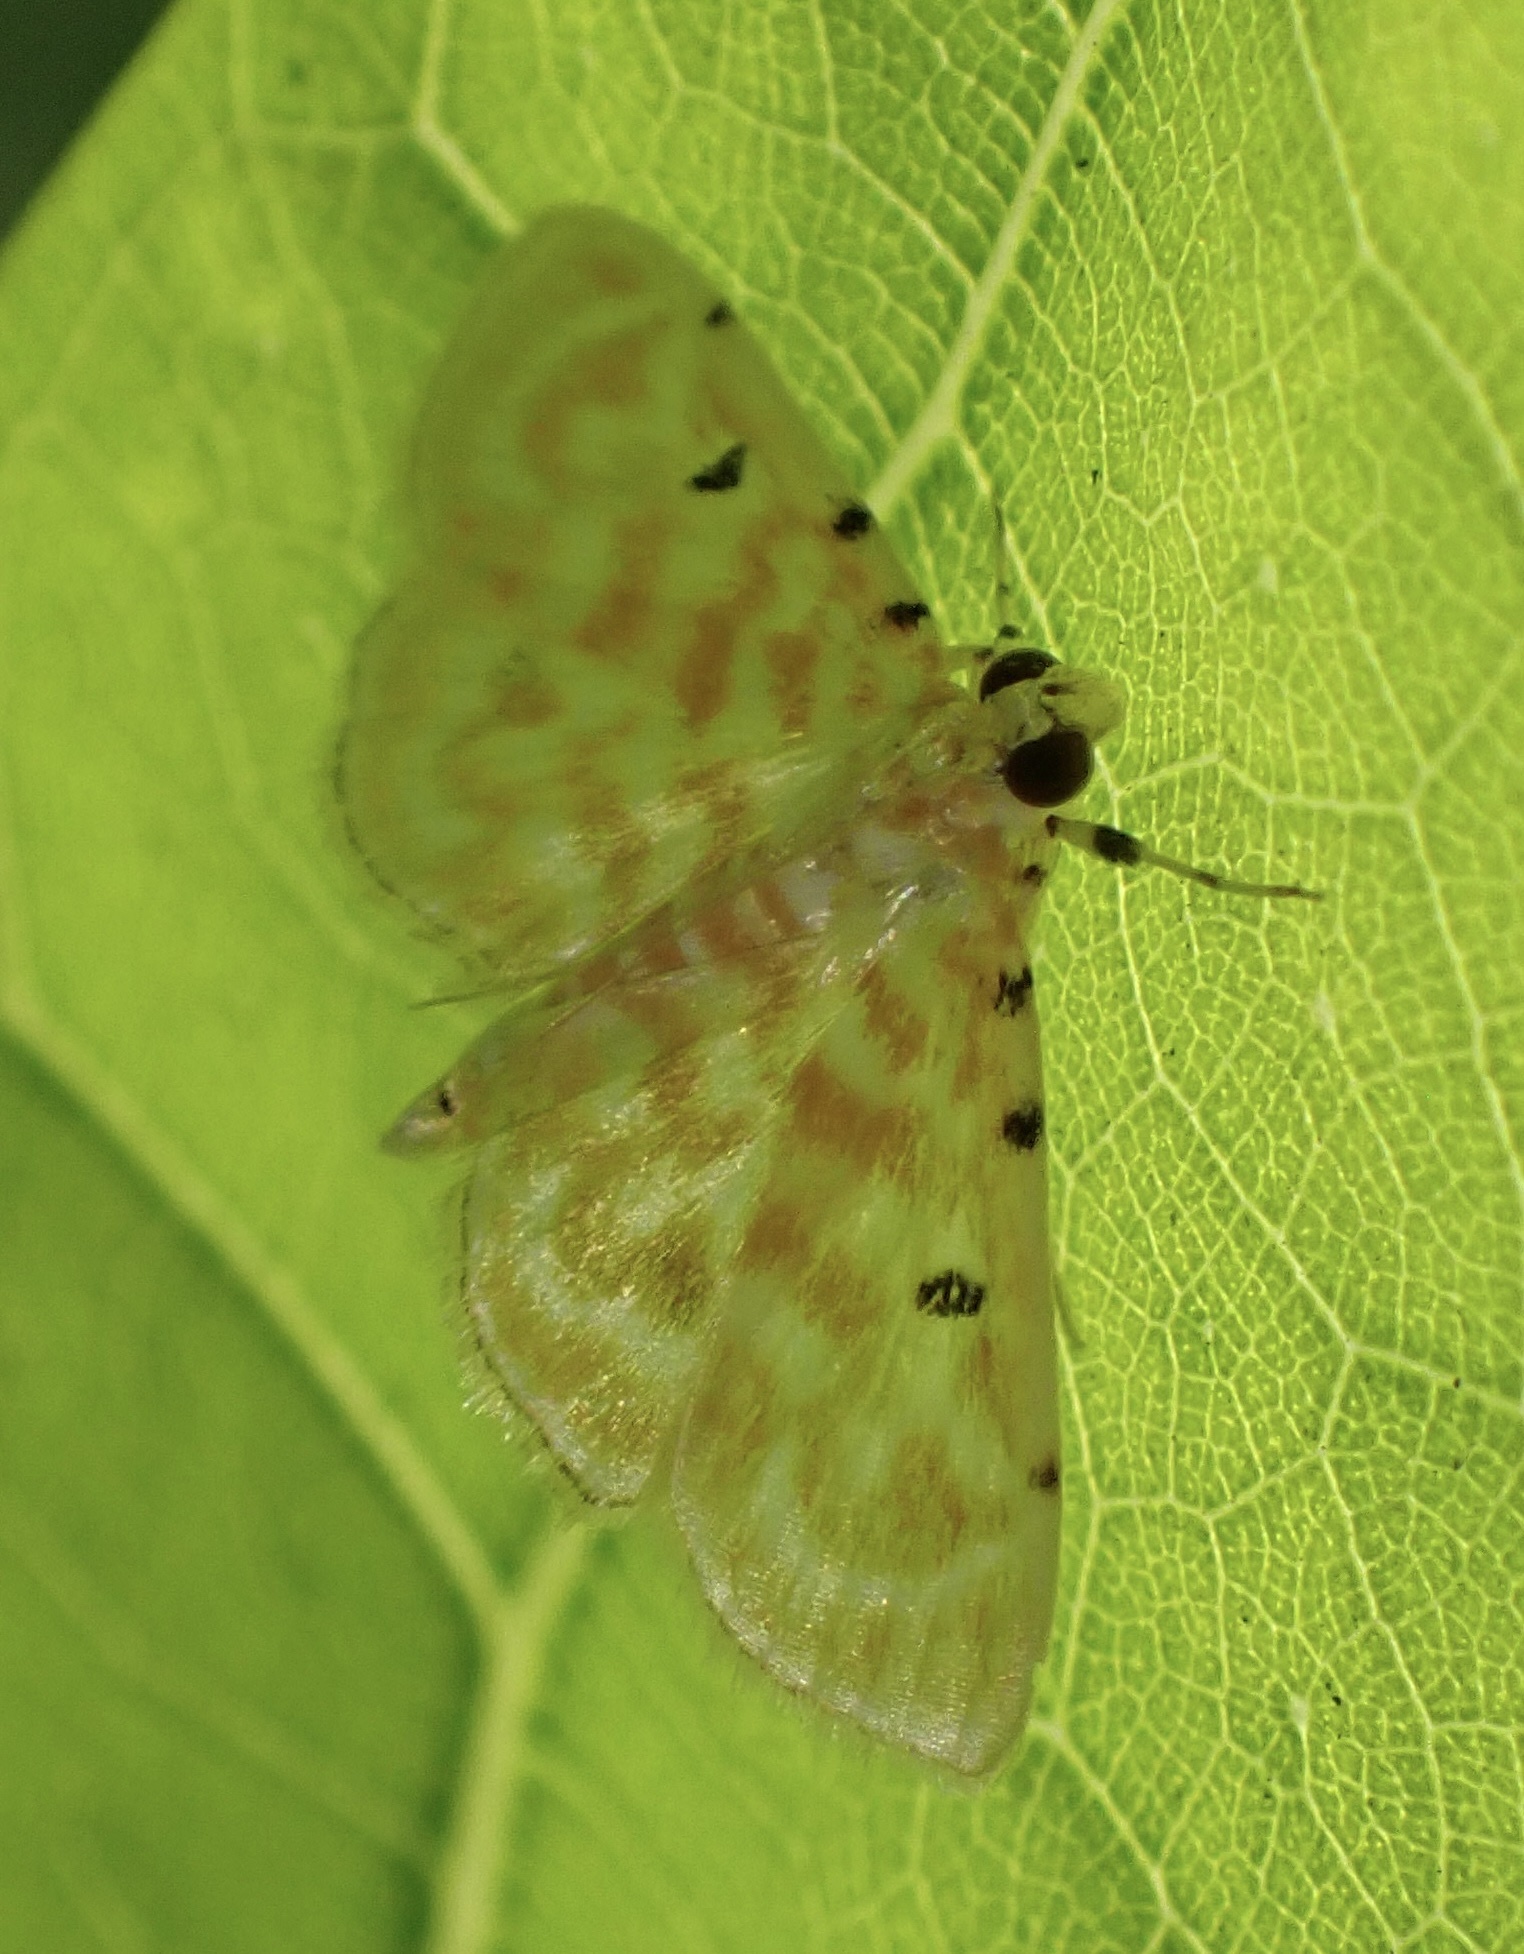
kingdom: Animalia
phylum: Arthropoda
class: Insecta
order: Lepidoptera
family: Crambidae
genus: Notarcha
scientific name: Notarcha aurolinealis
